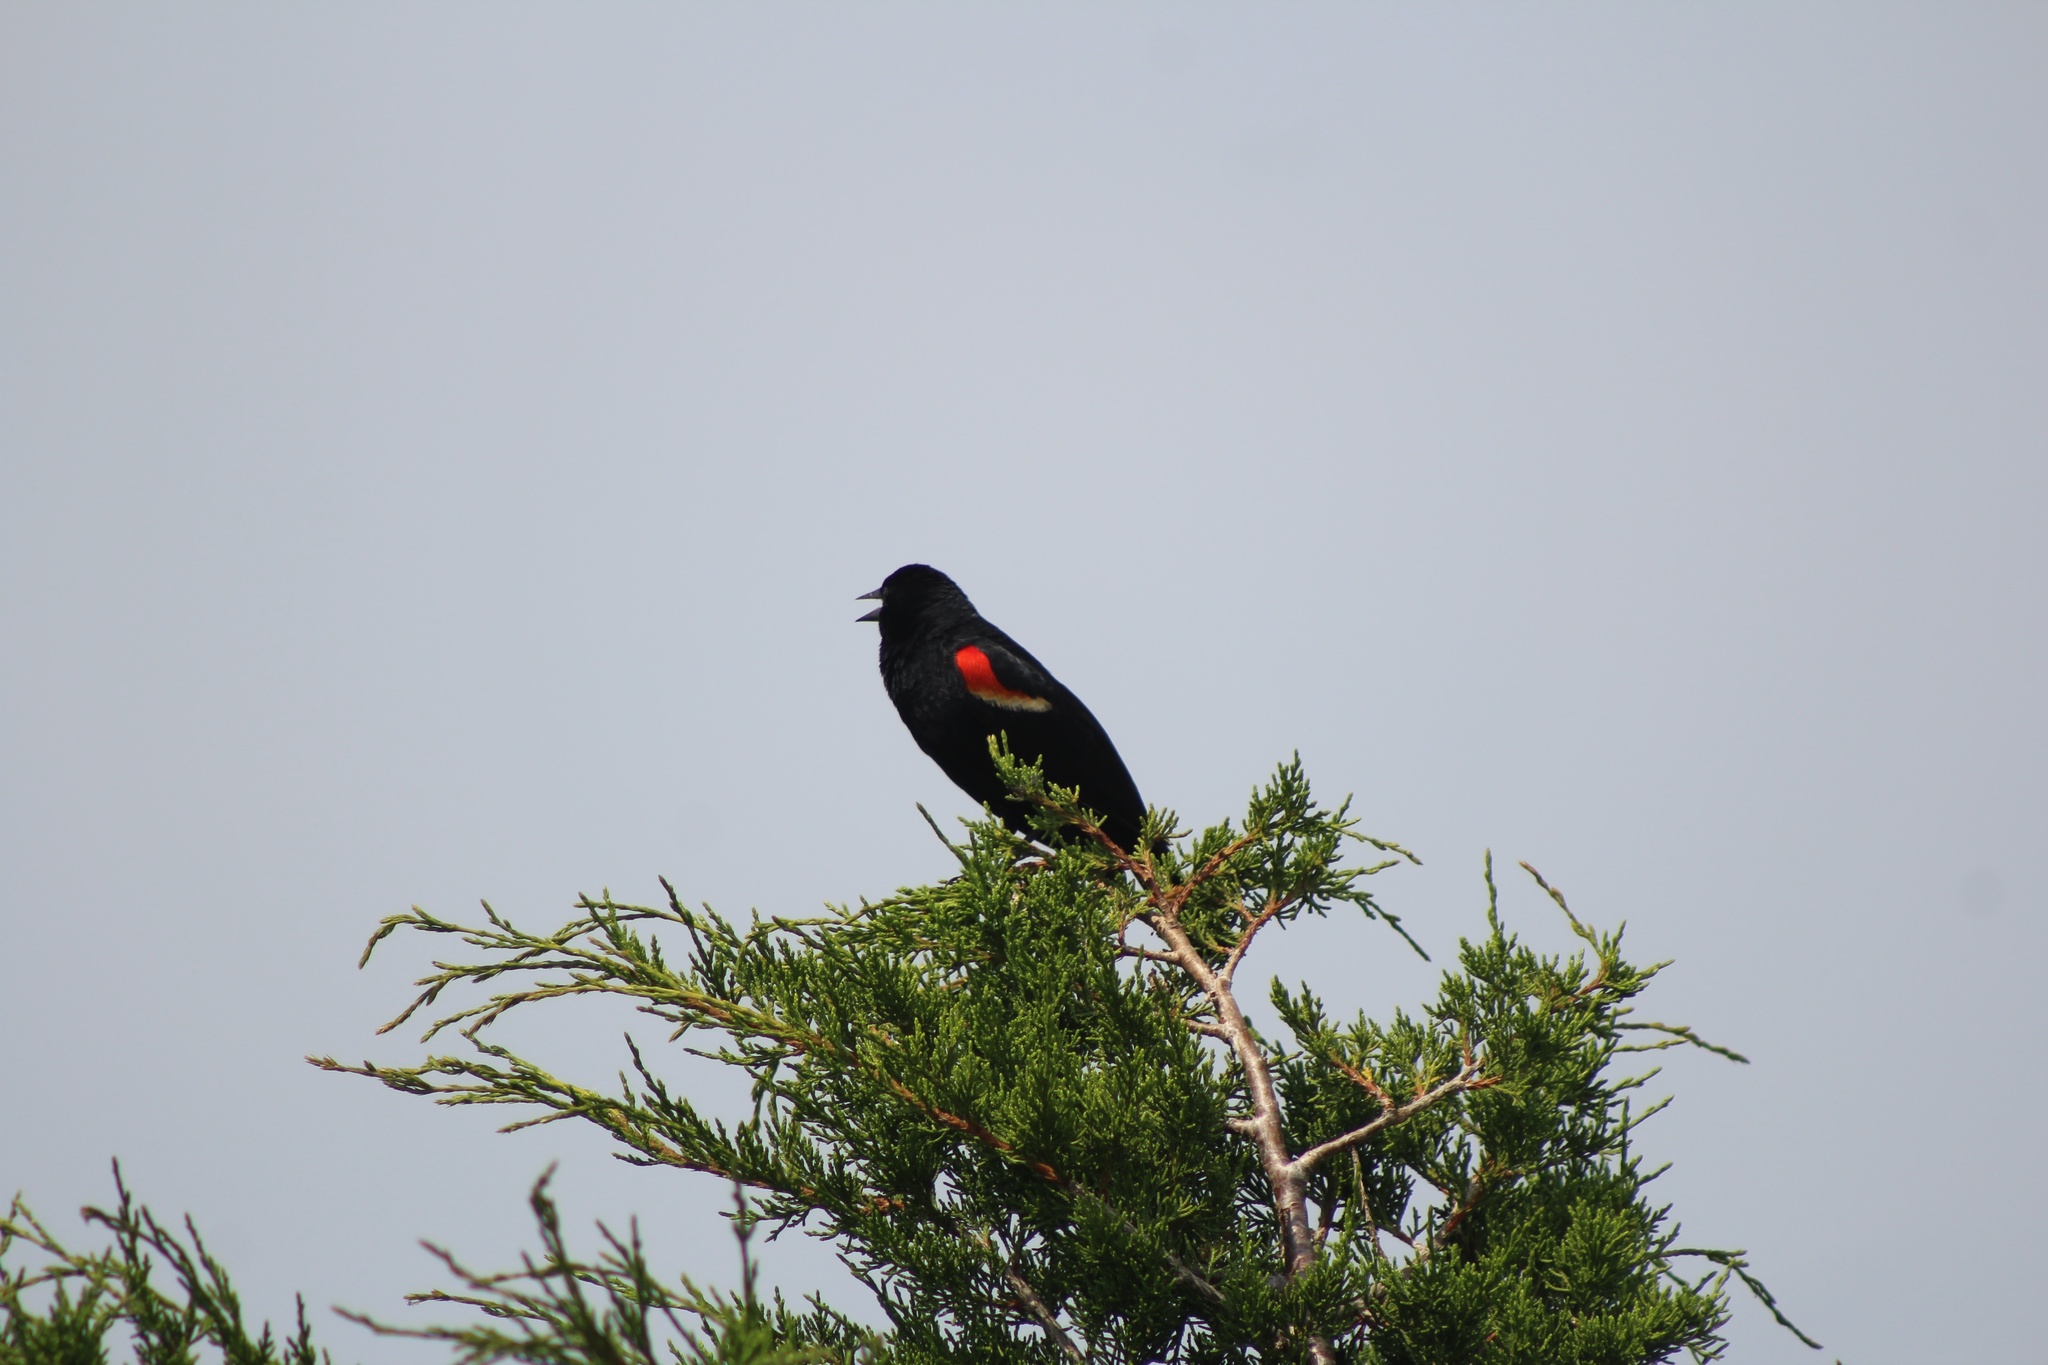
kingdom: Animalia
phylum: Chordata
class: Aves
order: Passeriformes
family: Icteridae
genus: Agelaius
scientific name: Agelaius phoeniceus
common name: Red-winged blackbird
